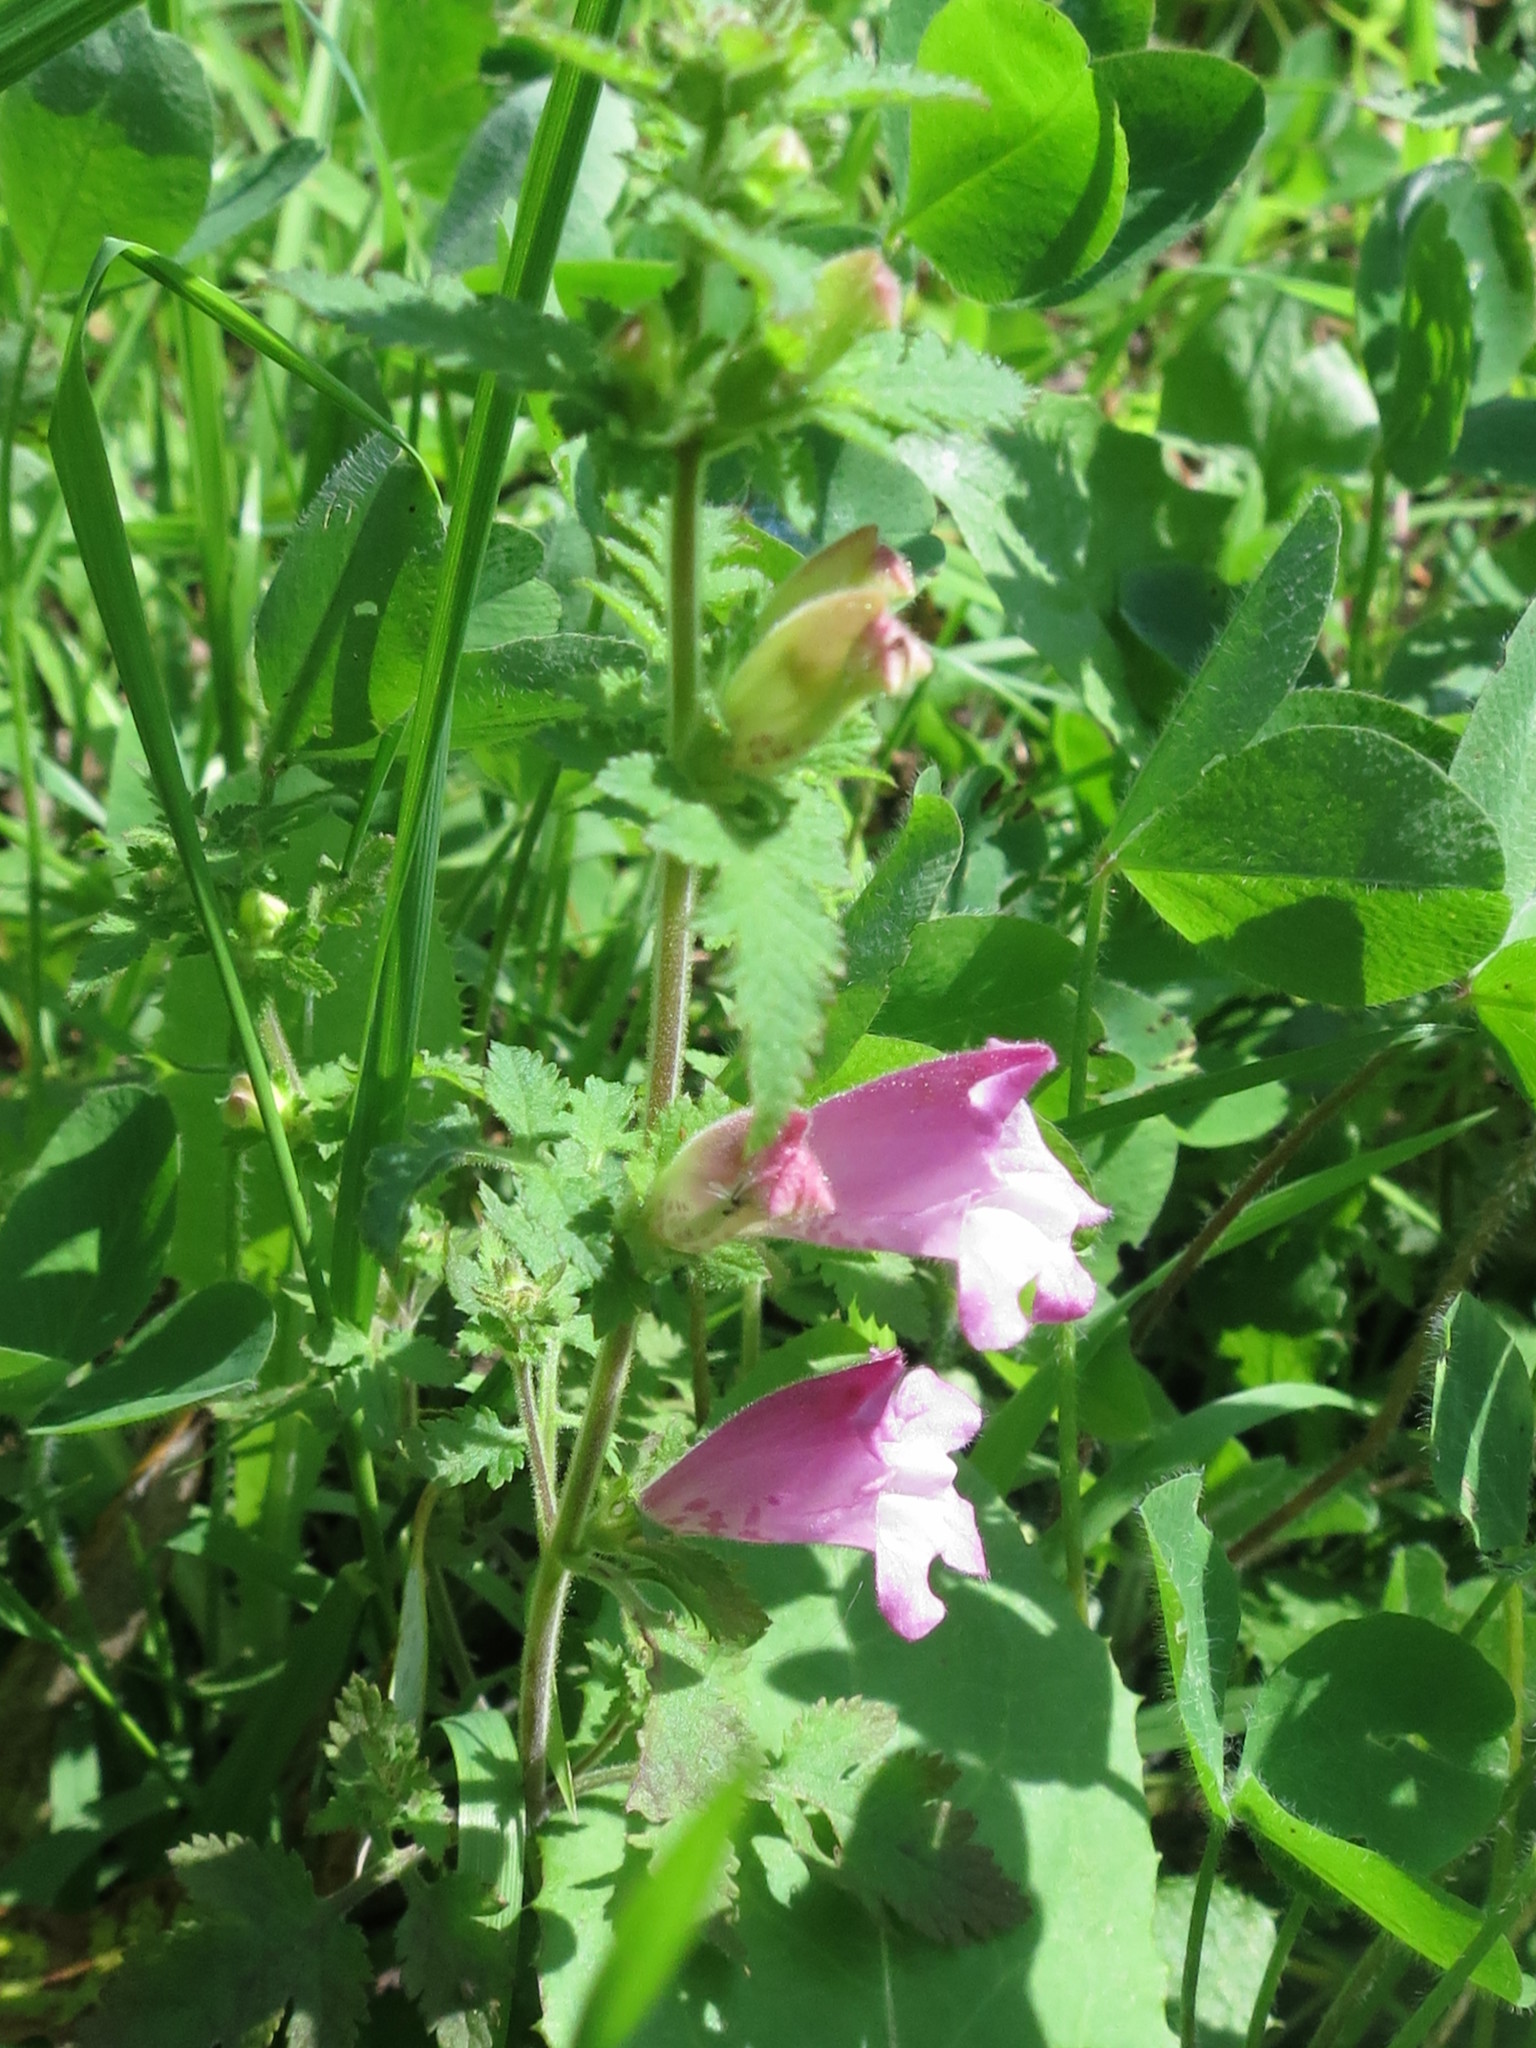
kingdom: Plantae
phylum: Tracheophyta
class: Magnoliopsida
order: Lamiales
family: Orobanchaceae
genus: Phtheirospermum
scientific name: Phtheirospermum japonicum
